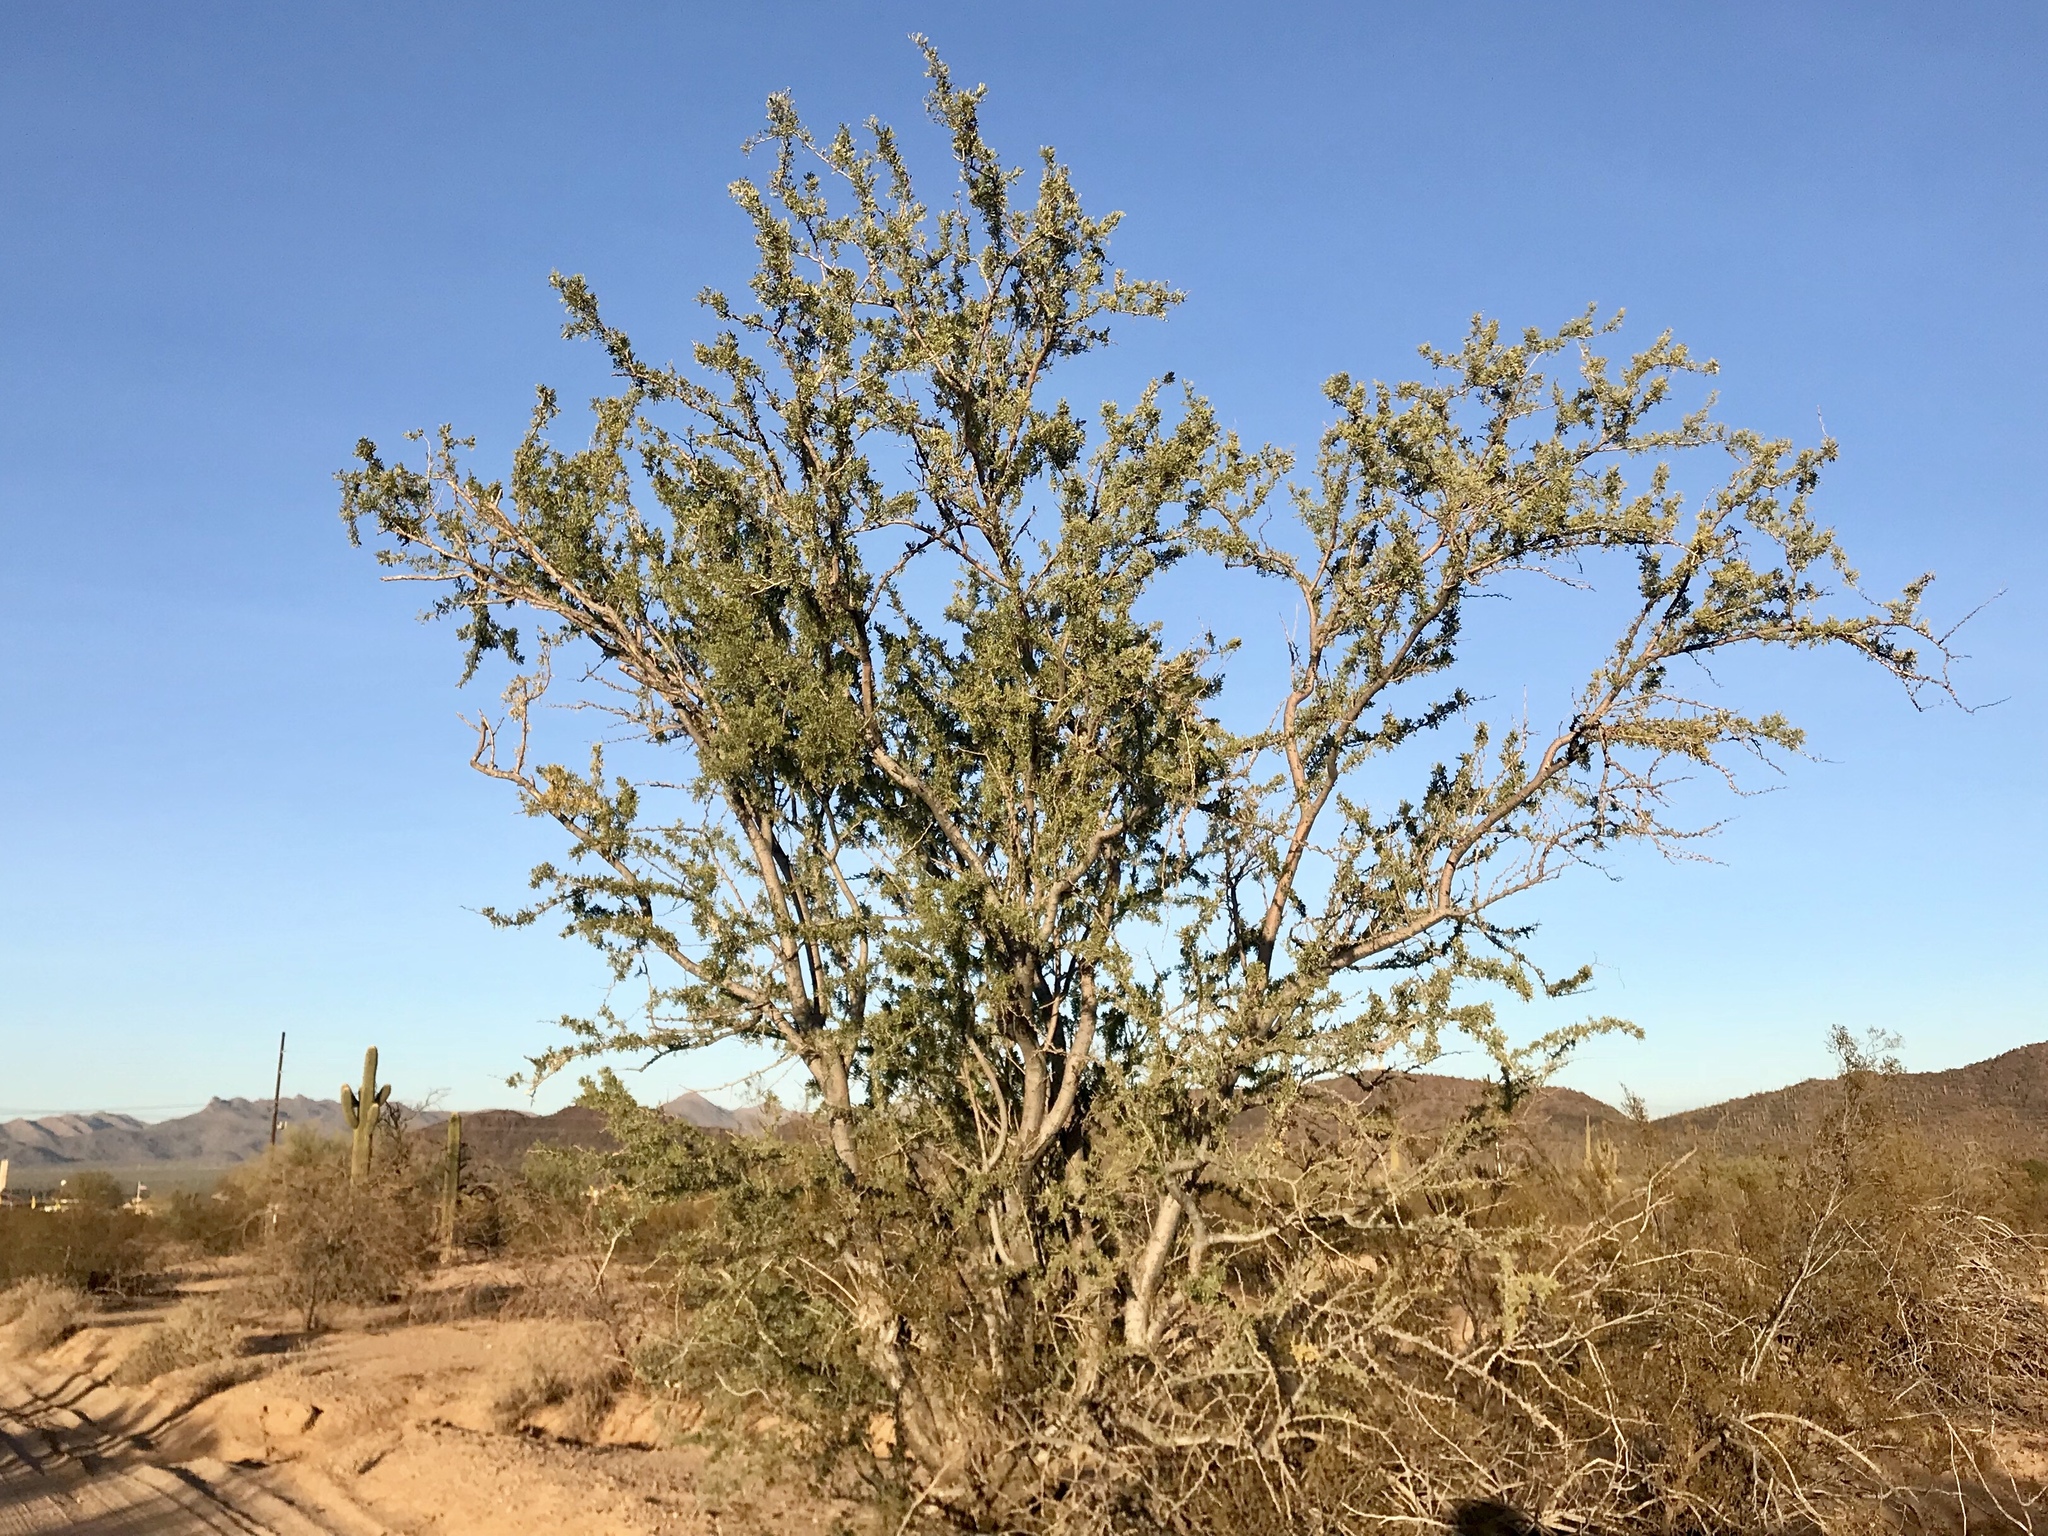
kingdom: Plantae
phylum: Tracheophyta
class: Magnoliopsida
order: Fabales
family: Fabaceae
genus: Olneya
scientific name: Olneya tesota
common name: Desert ironwood
